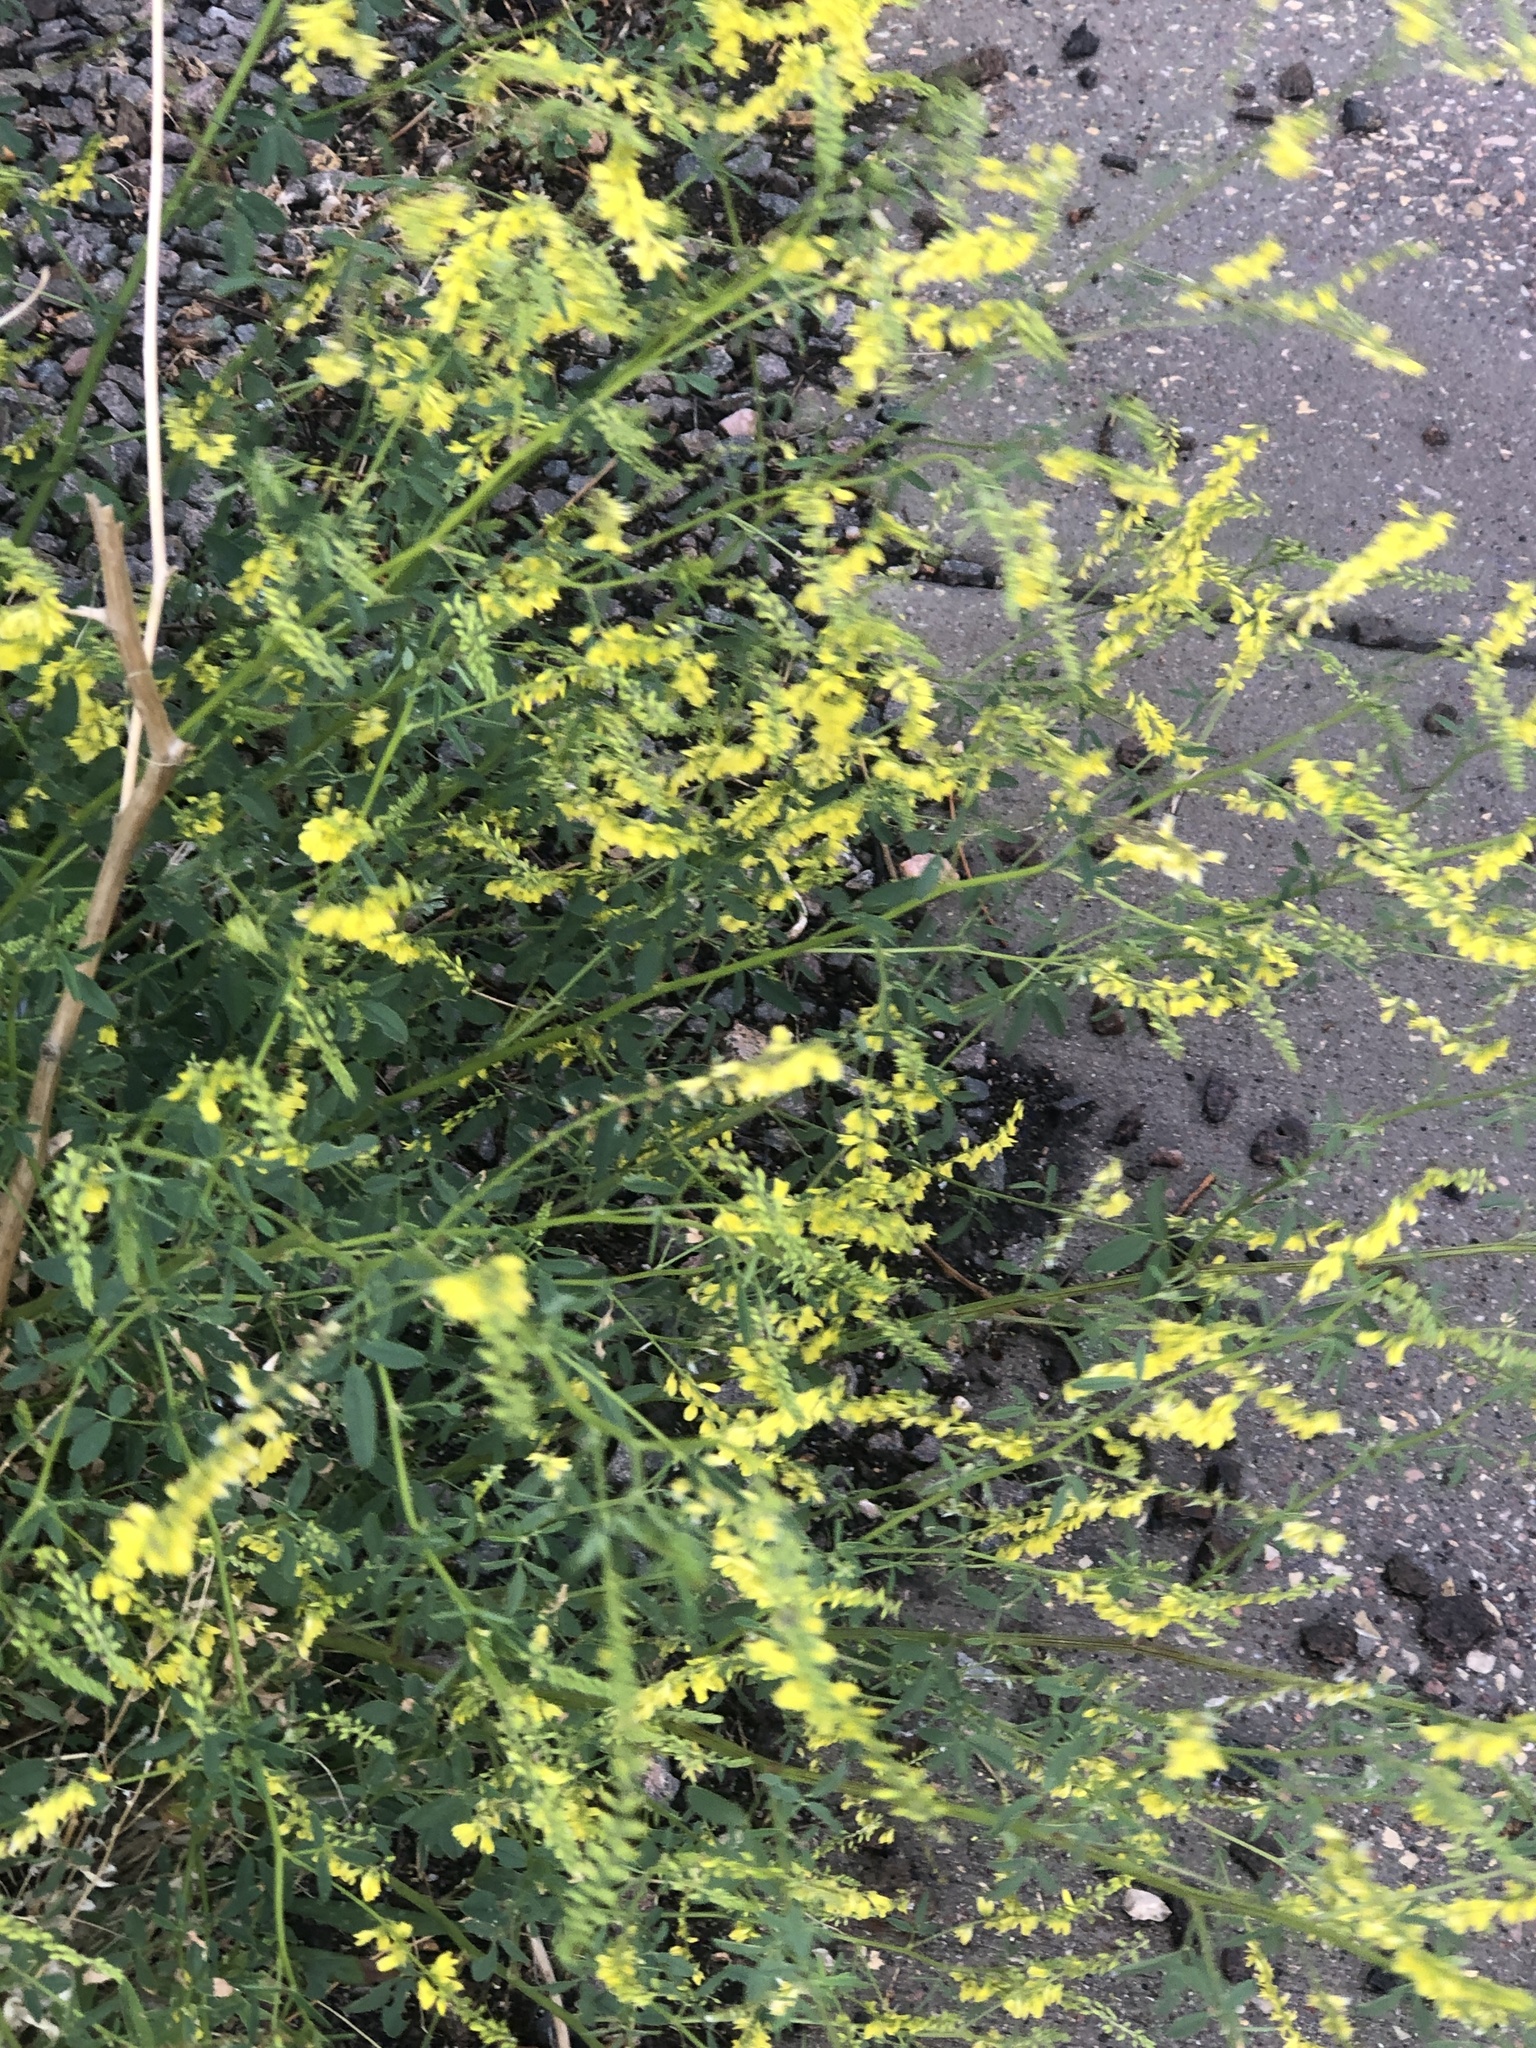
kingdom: Plantae
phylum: Tracheophyta
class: Magnoliopsida
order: Fabales
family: Fabaceae
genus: Melilotus
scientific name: Melilotus officinalis
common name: Sweetclover
